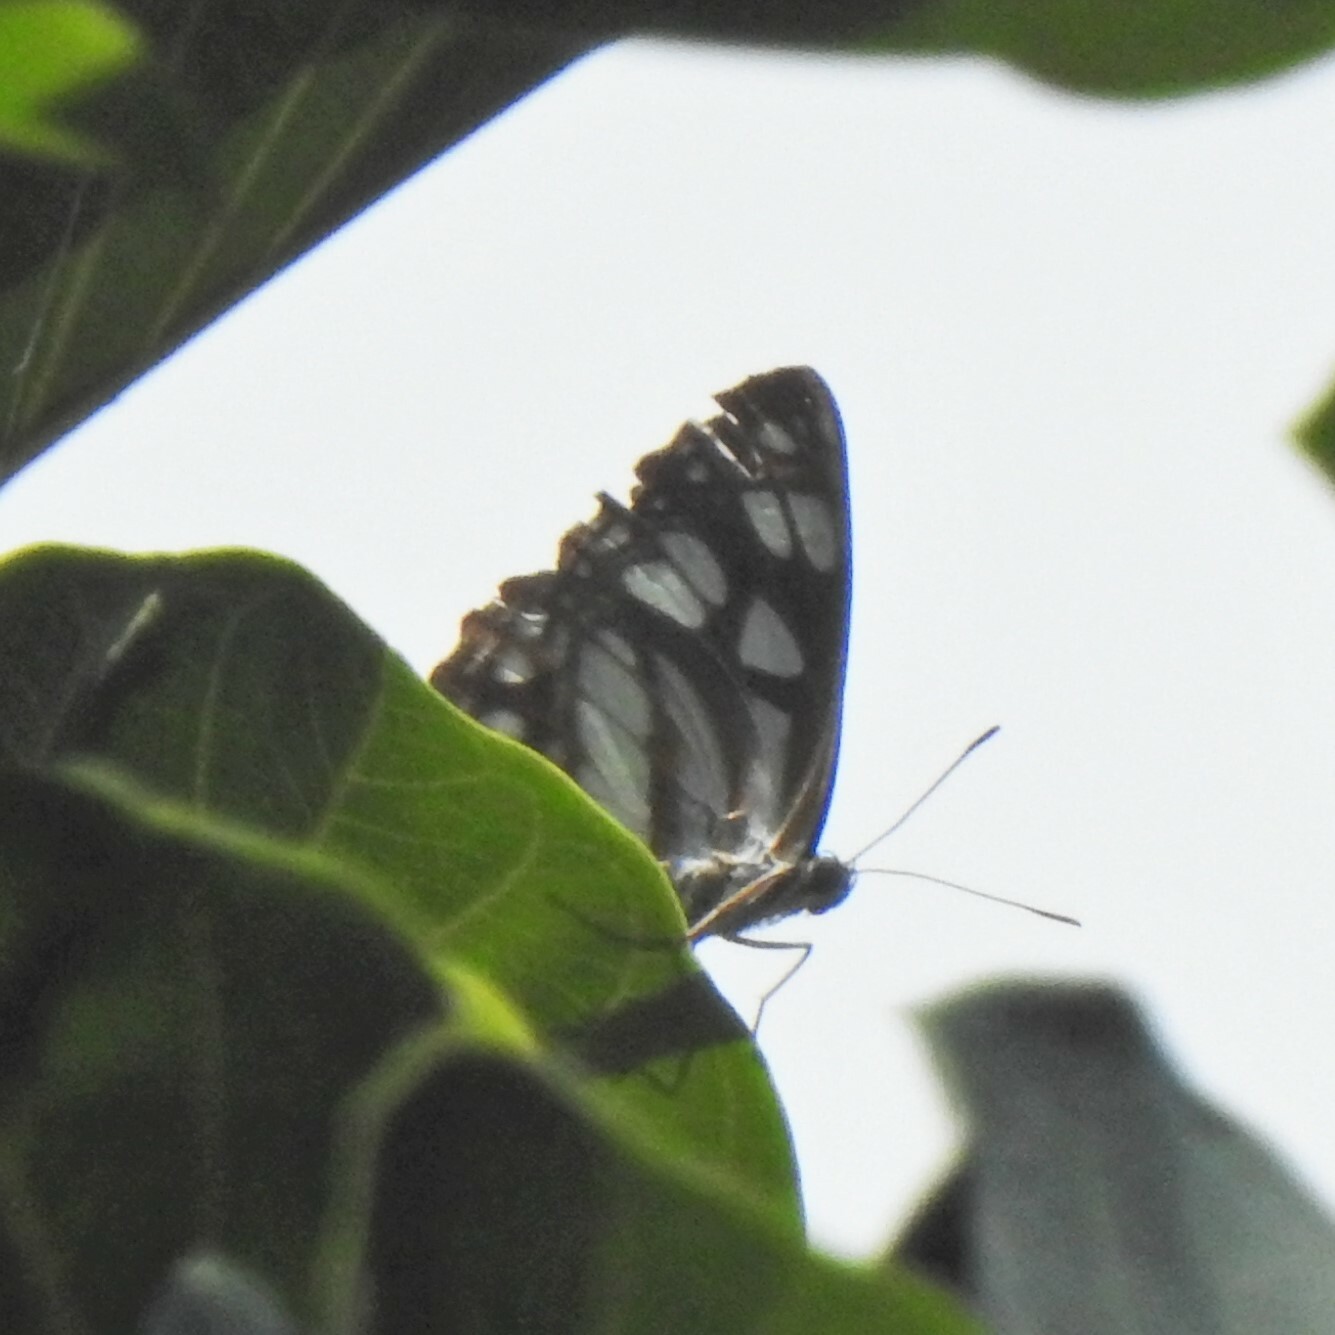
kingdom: Animalia
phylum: Arthropoda
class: Insecta
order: Lepidoptera
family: Nymphalidae
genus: Phaedyma
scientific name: Phaedyma columella
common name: Short banded sailer
